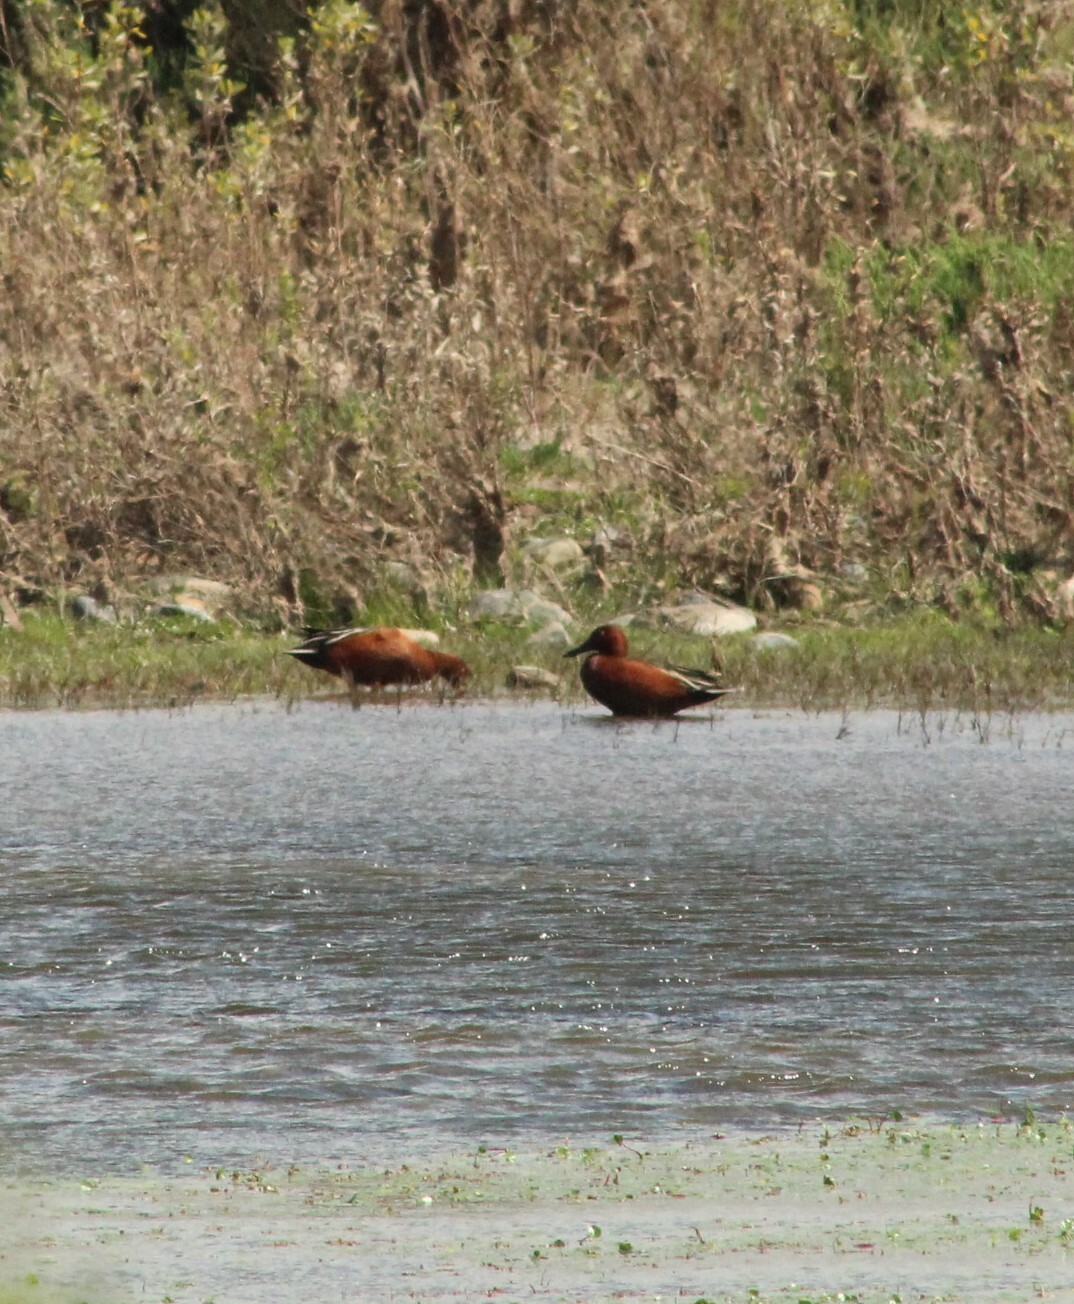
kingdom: Animalia
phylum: Chordata
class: Aves
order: Anseriformes
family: Anatidae
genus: Spatula
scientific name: Spatula cyanoptera
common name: Cinnamon teal
